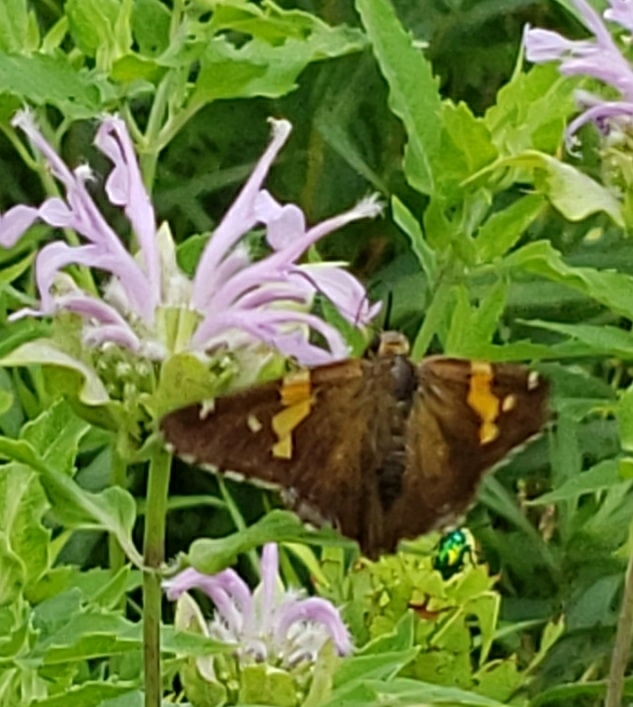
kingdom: Animalia
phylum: Arthropoda
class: Insecta
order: Lepidoptera
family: Hesperiidae
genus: Epargyreus
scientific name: Epargyreus clarus
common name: Silver-spotted skipper
